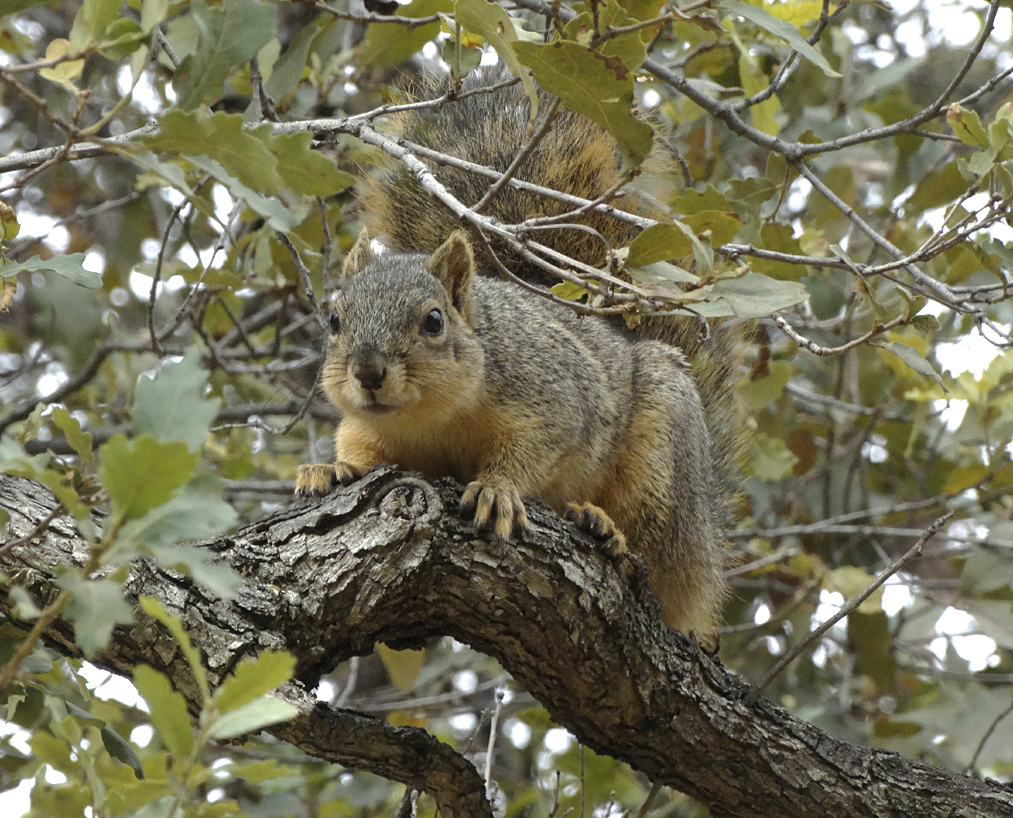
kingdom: Animalia
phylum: Chordata
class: Mammalia
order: Rodentia
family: Sciuridae
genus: Sciurus
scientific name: Sciurus niger
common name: Fox squirrel
